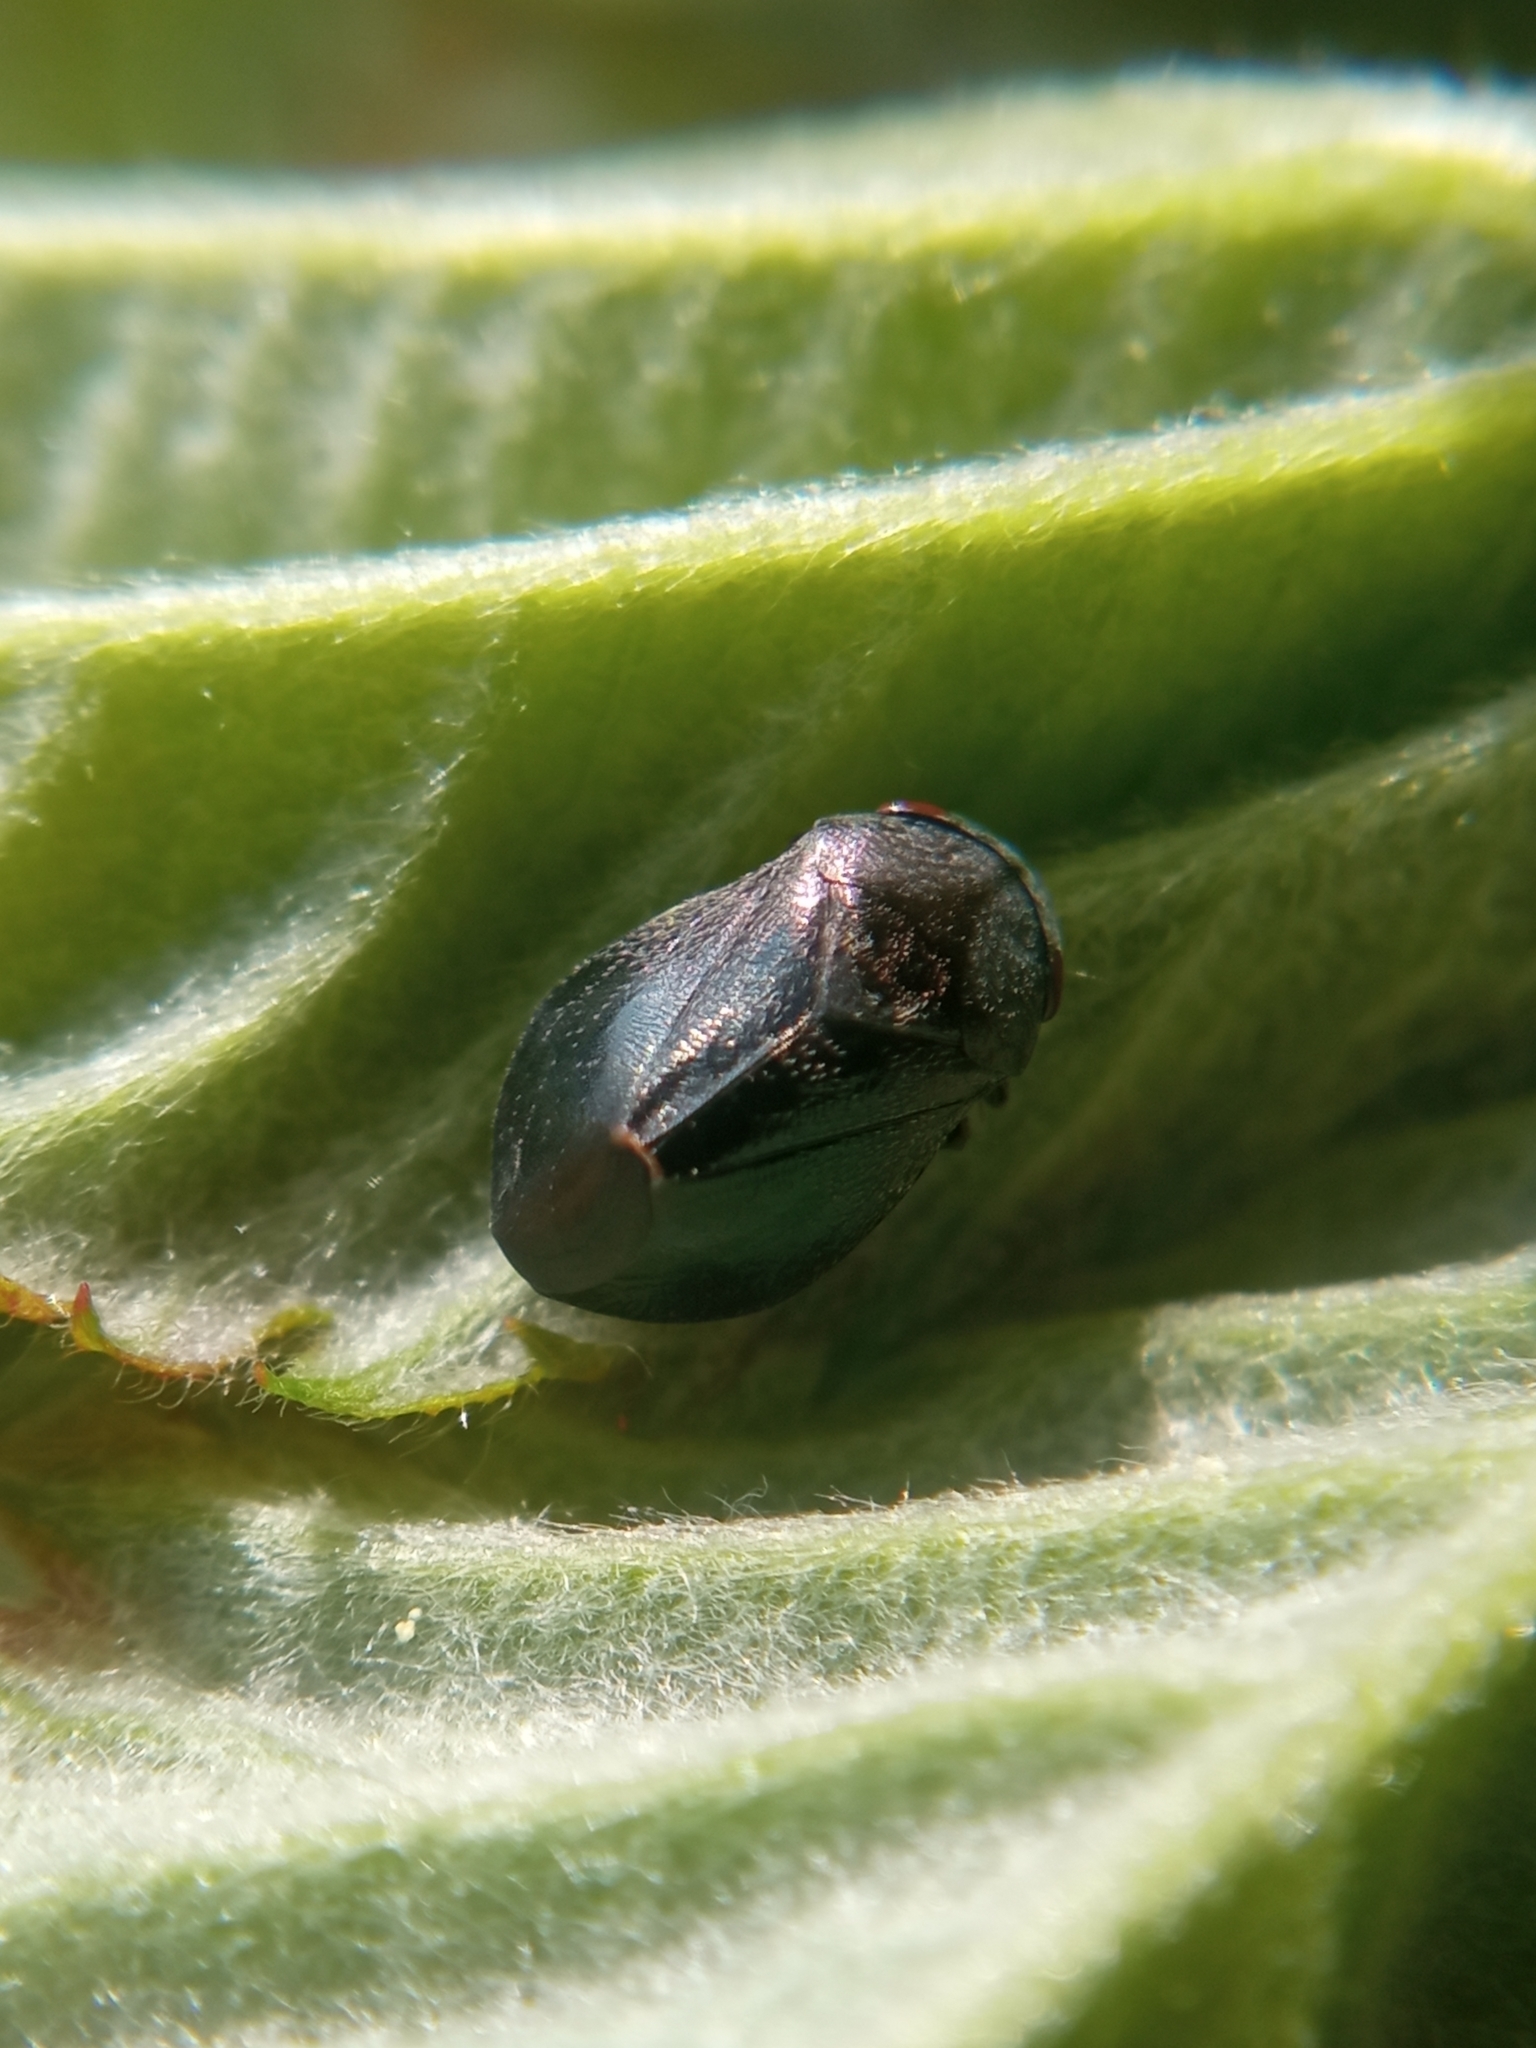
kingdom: Animalia
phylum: Arthropoda
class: Insecta
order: Hemiptera
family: Cicadellidae
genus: Penthimia
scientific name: Penthimia nigra
